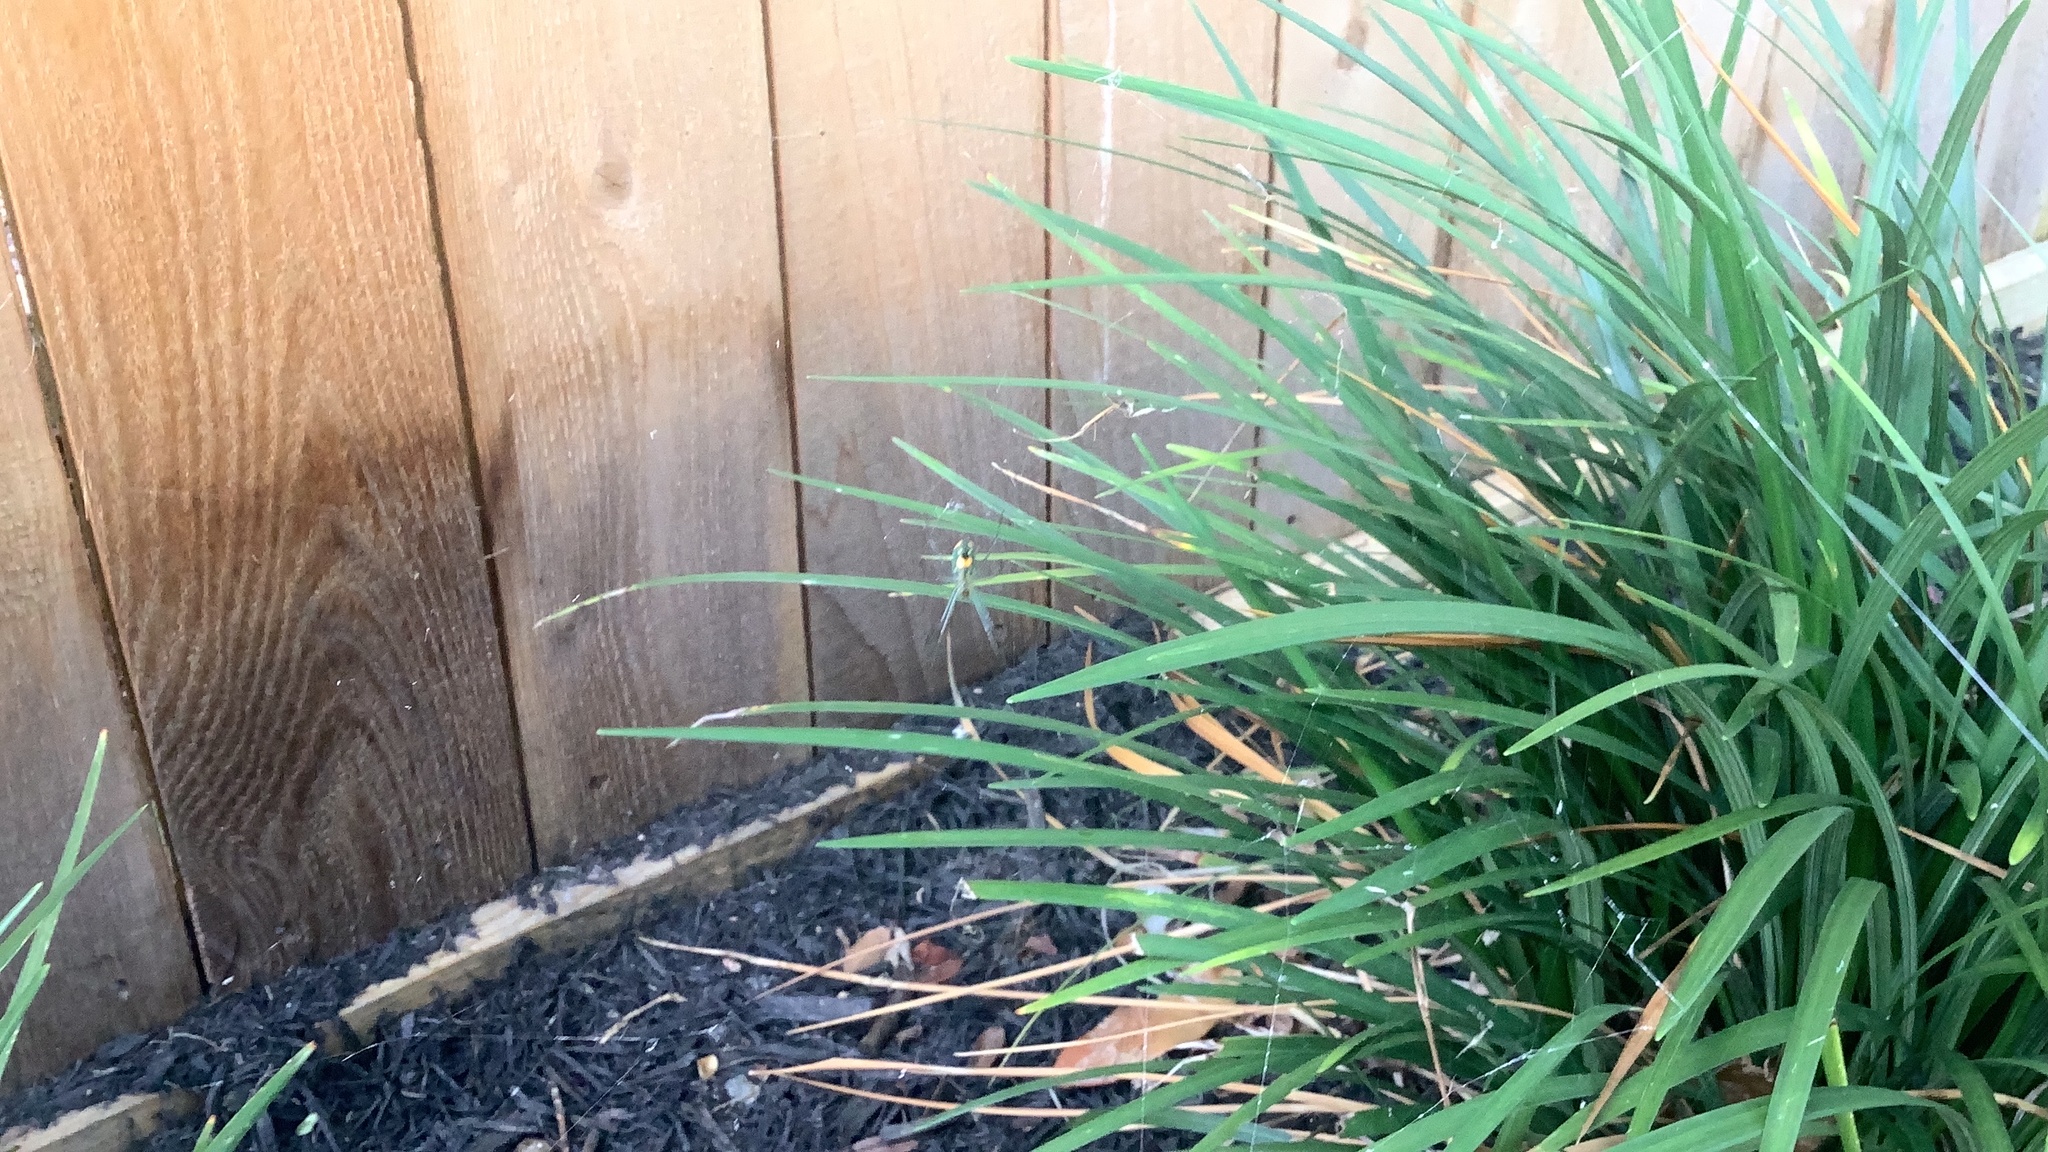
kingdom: Animalia
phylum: Arthropoda
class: Arachnida
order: Araneae
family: Tetragnathidae
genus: Leucauge
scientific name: Leucauge argyrobapta
